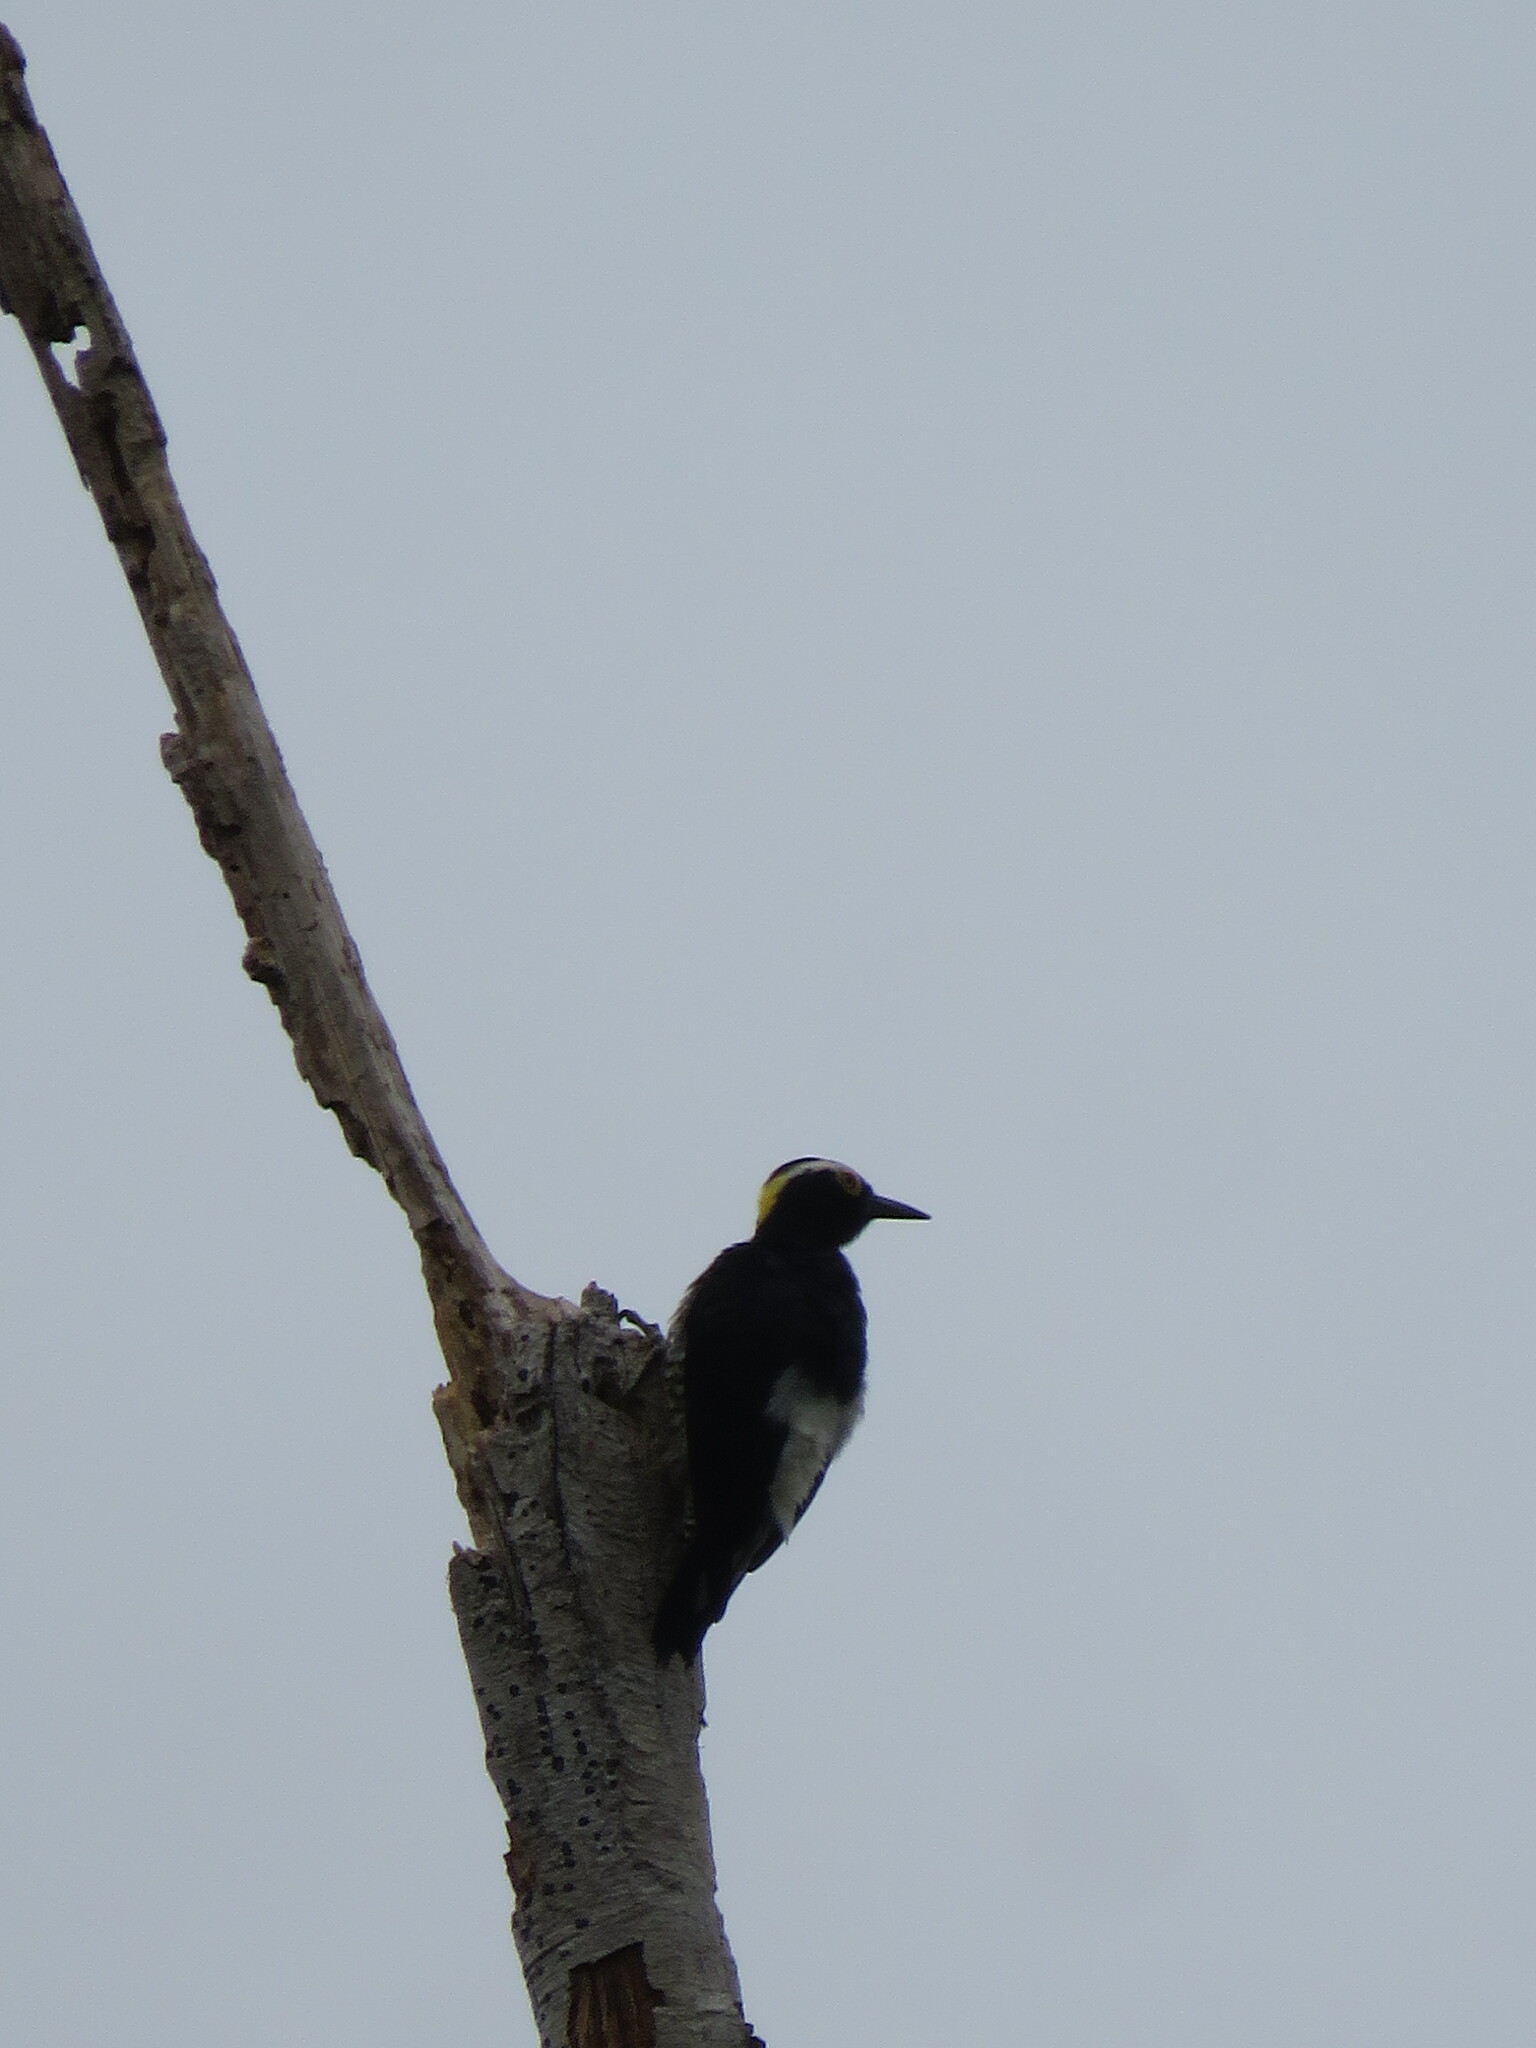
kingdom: Animalia
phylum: Chordata
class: Aves
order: Piciformes
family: Picidae
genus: Melanerpes
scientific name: Melanerpes cruentatus
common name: Yellow-tufted woodpecker
